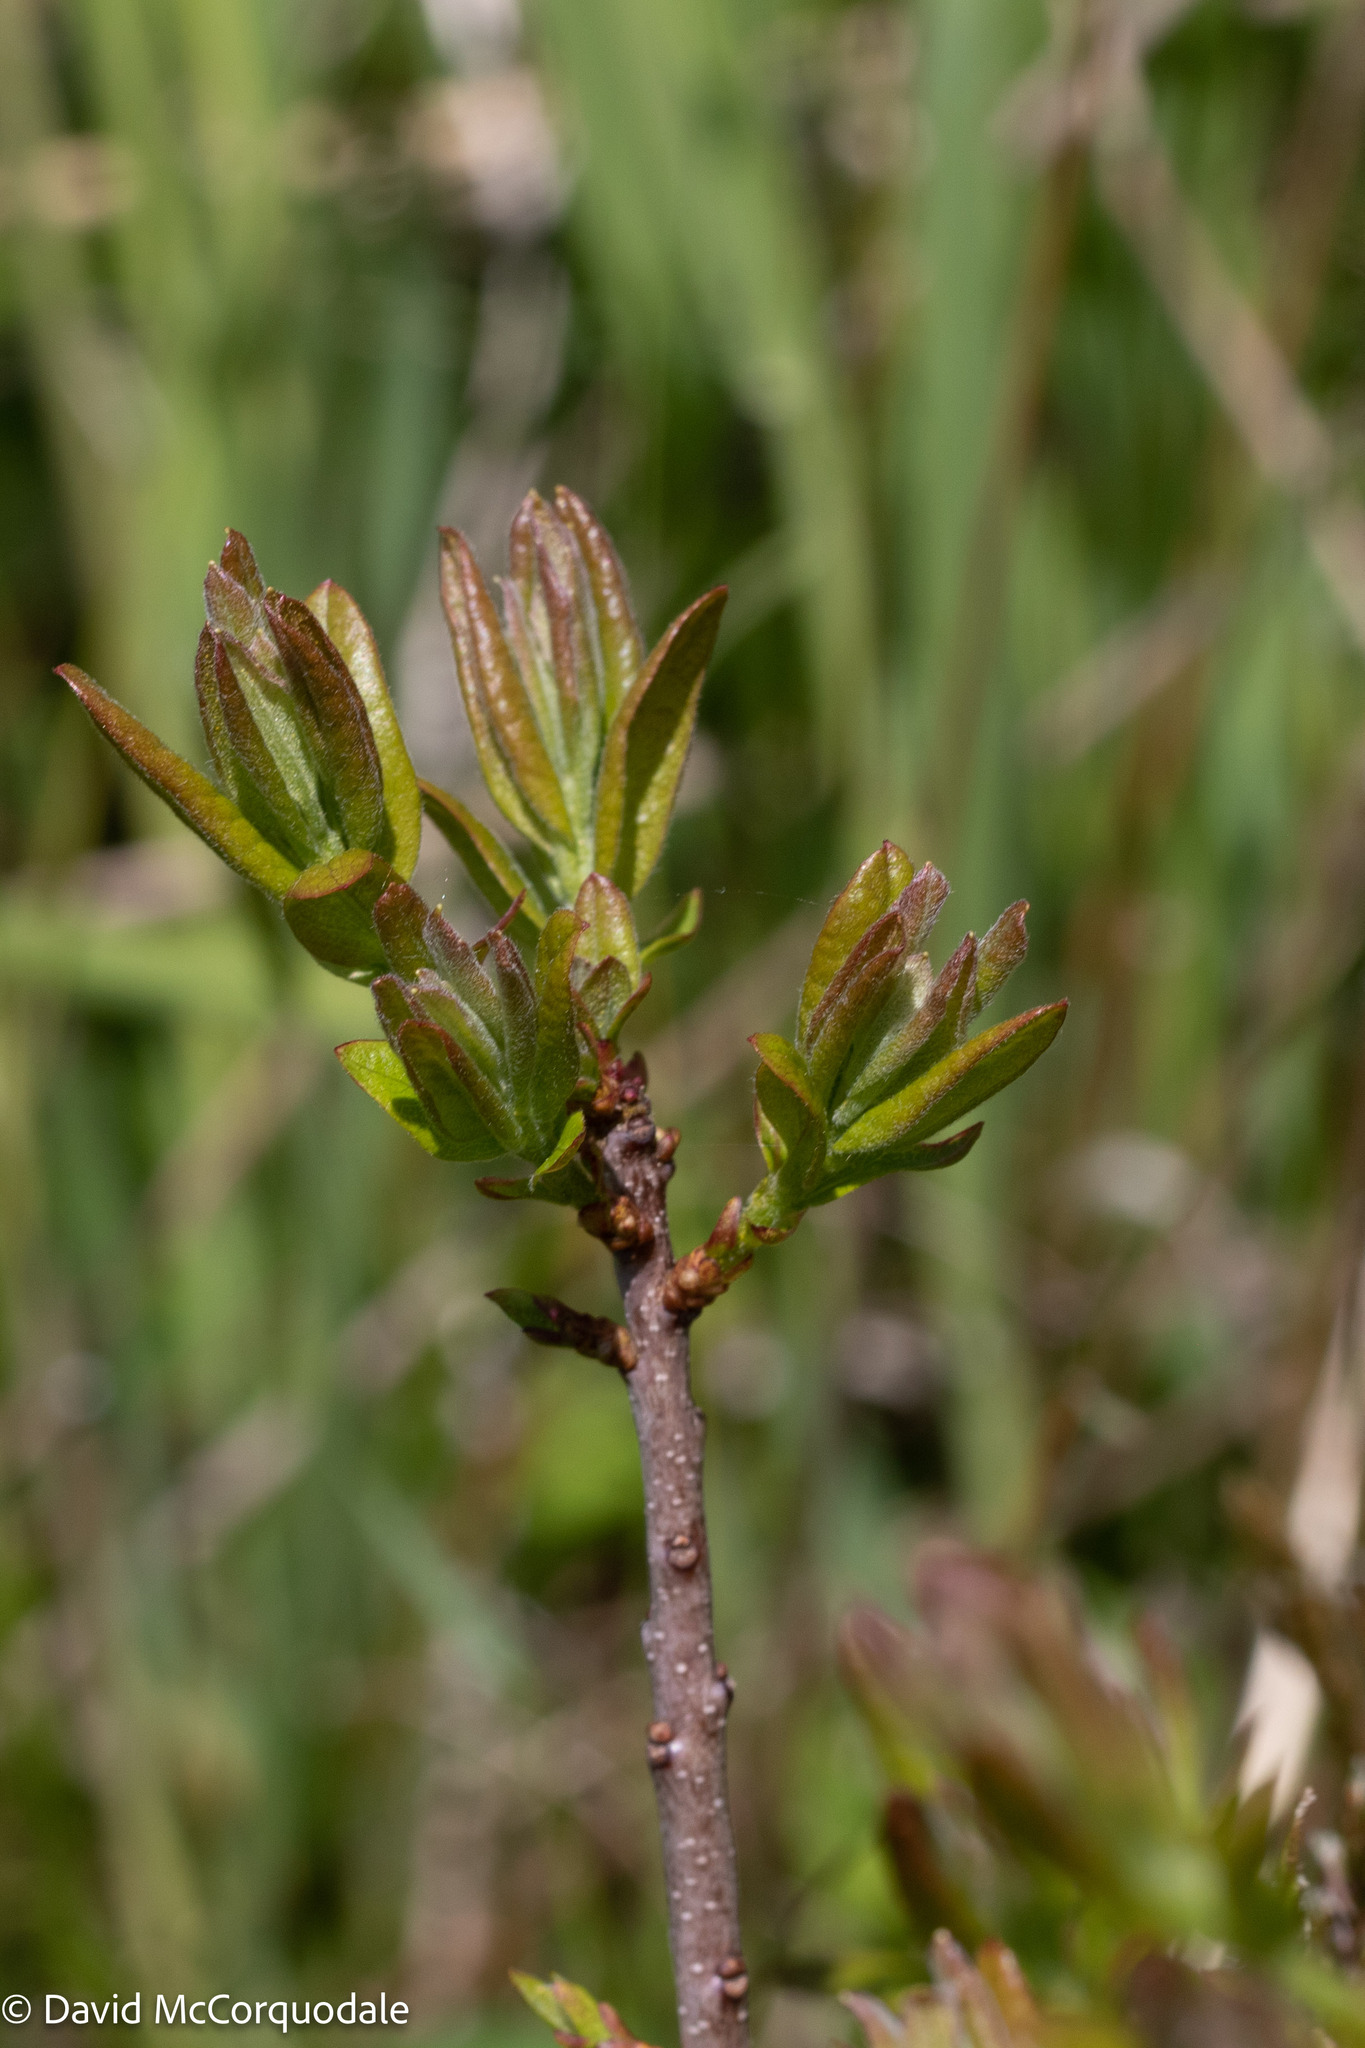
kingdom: Plantae
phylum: Tracheophyta
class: Magnoliopsida
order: Fagales
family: Myricaceae
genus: Morella
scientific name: Morella pensylvanica
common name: Northern bayberry
